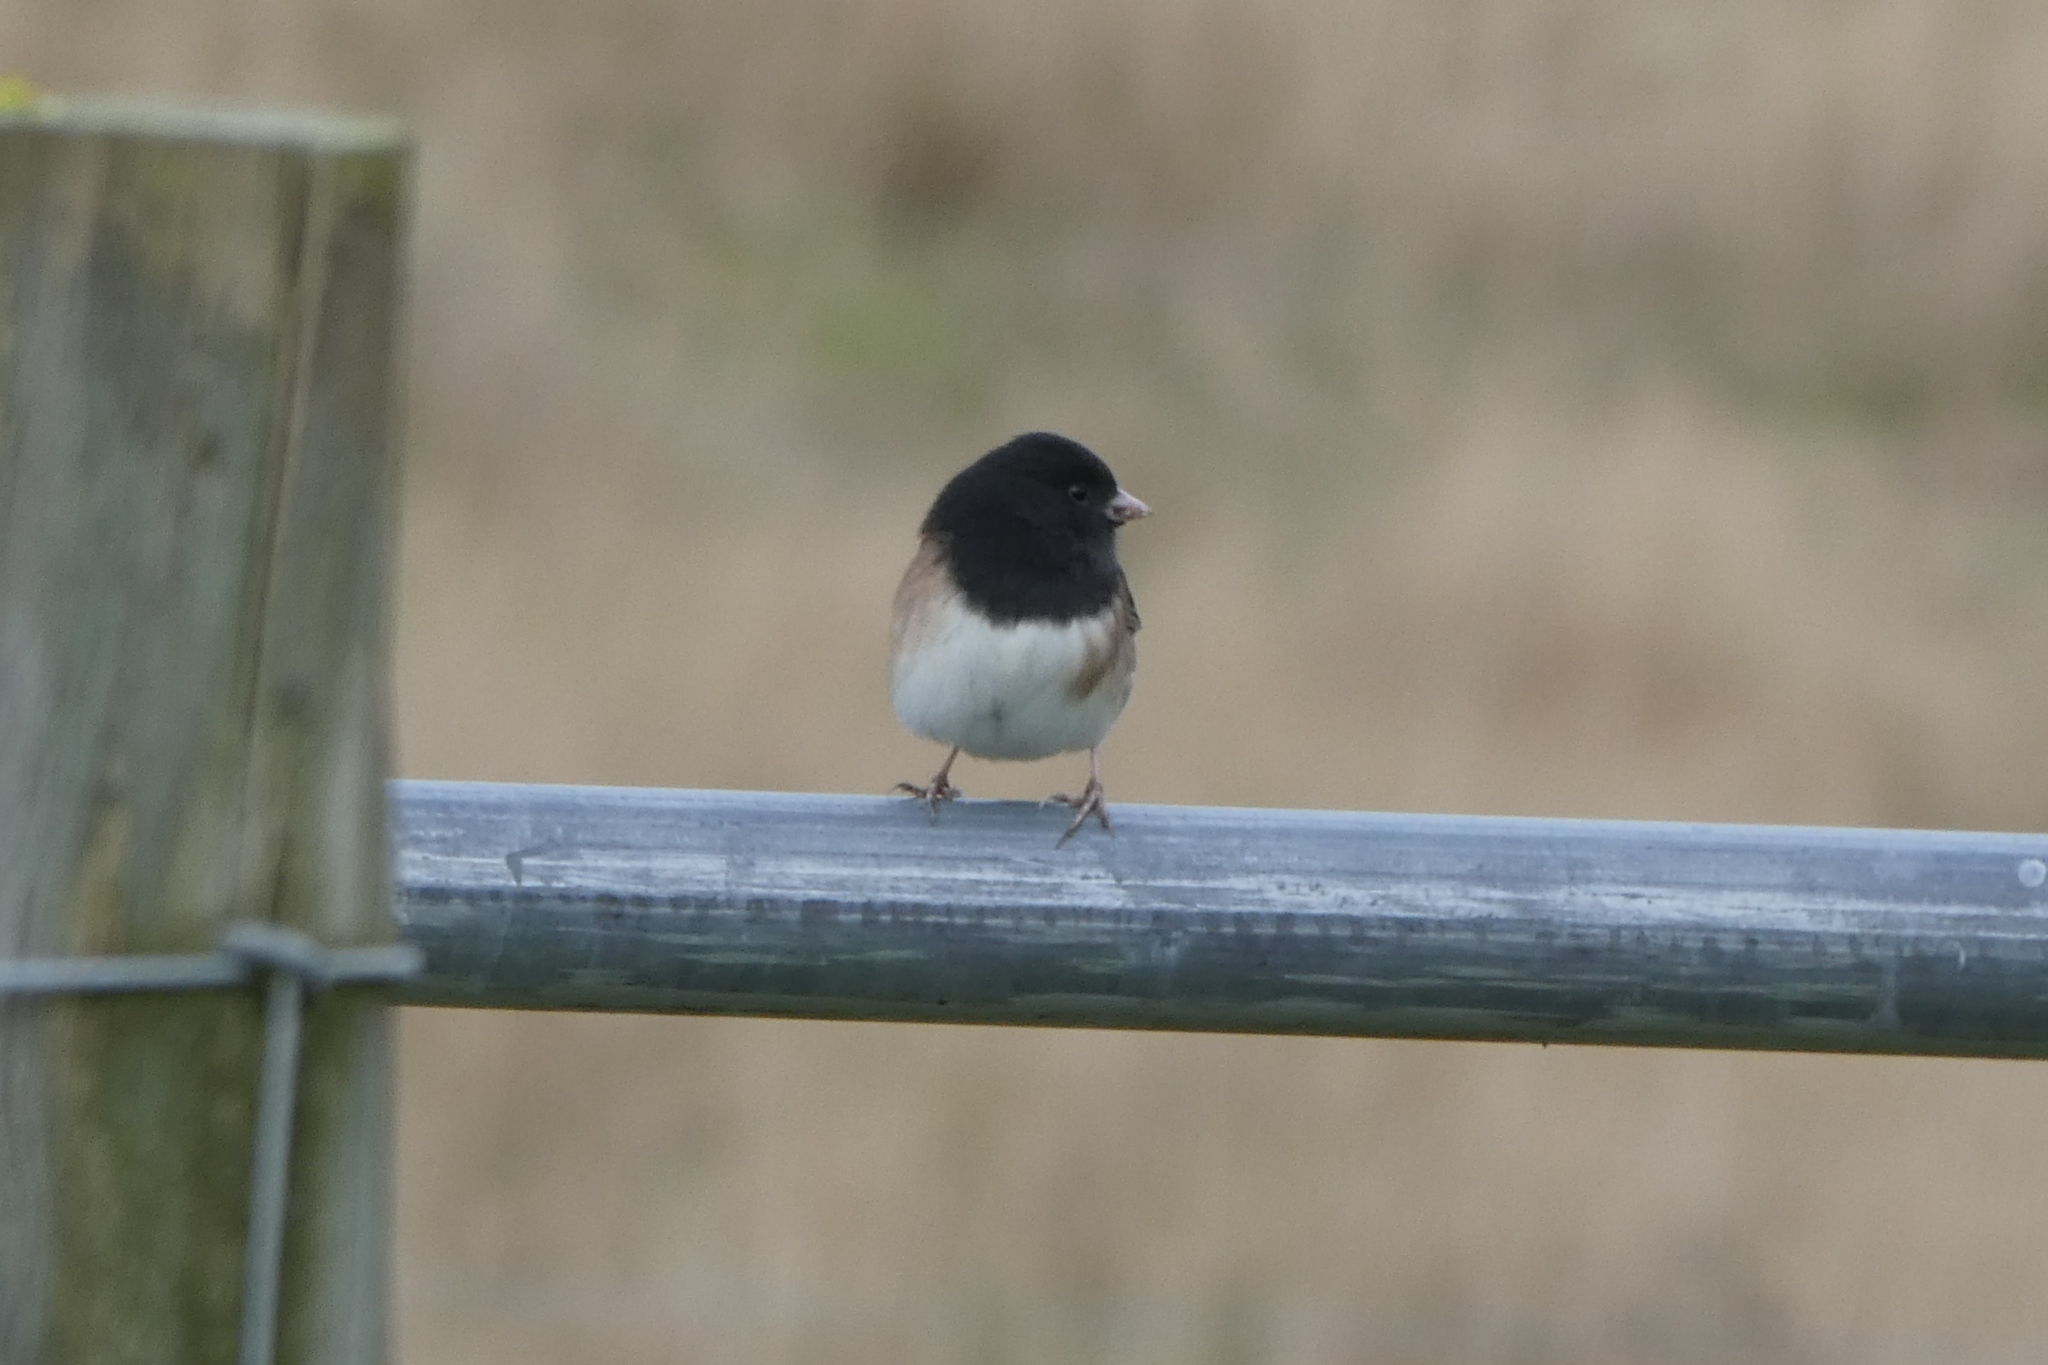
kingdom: Animalia
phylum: Chordata
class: Aves
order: Passeriformes
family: Passerellidae
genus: Junco
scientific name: Junco hyemalis
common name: Dark-eyed junco
